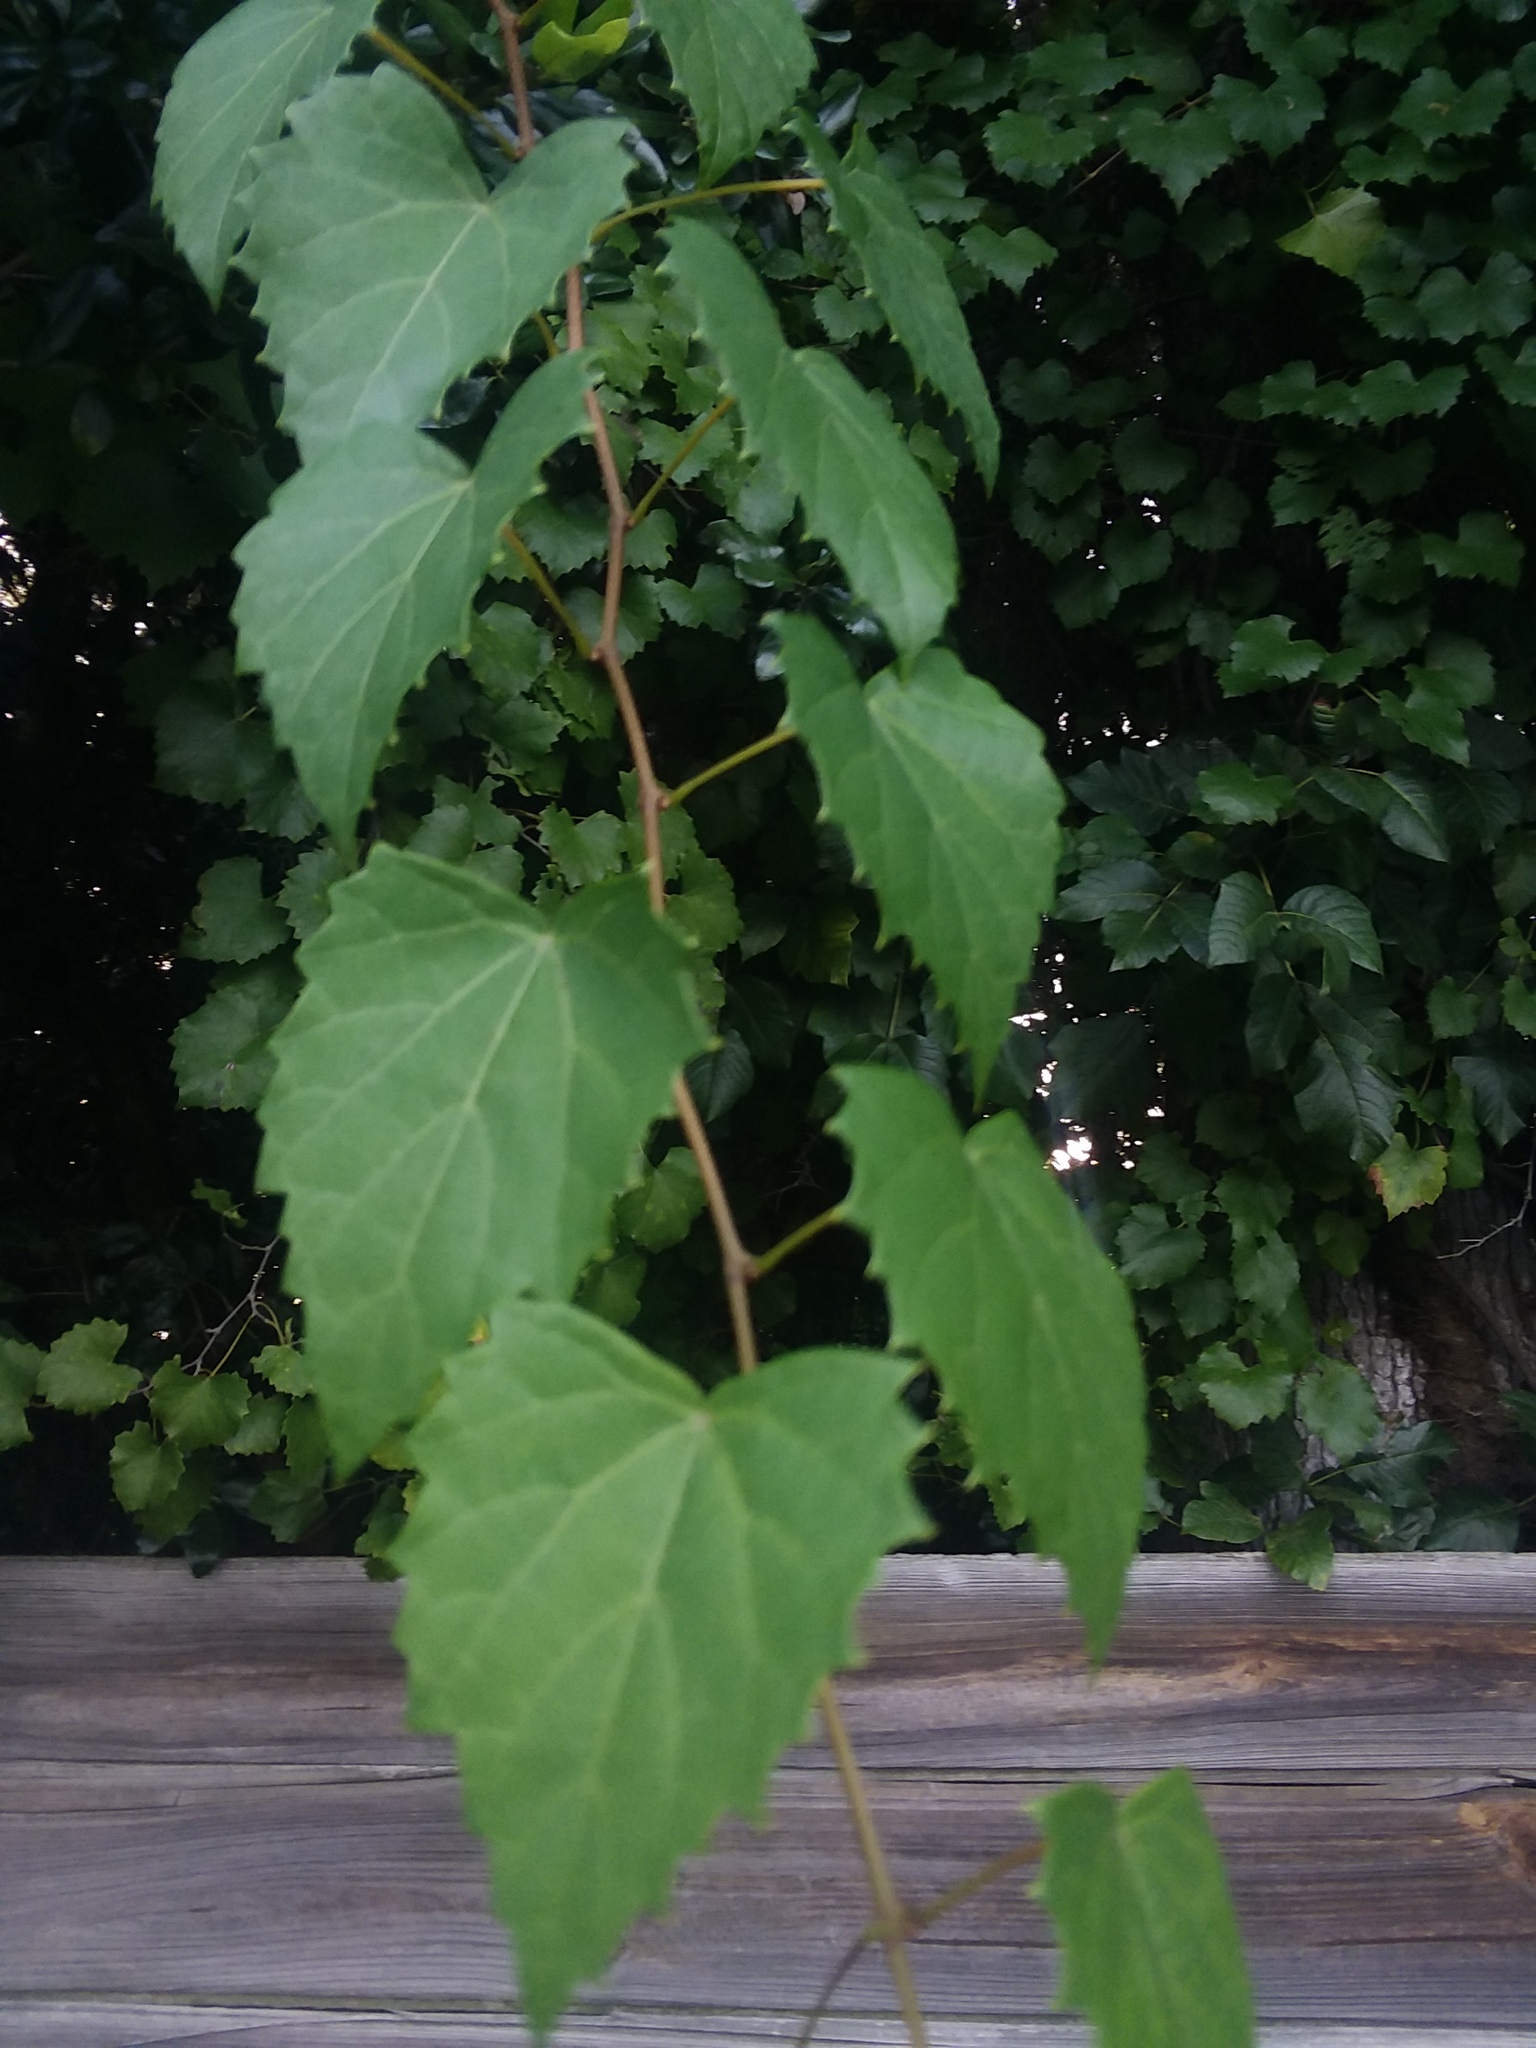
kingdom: Plantae
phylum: Tracheophyta
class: Magnoliopsida
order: Vitales
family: Vitaceae
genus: Vitis
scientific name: Vitis rotundifolia
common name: Muscadine grape
